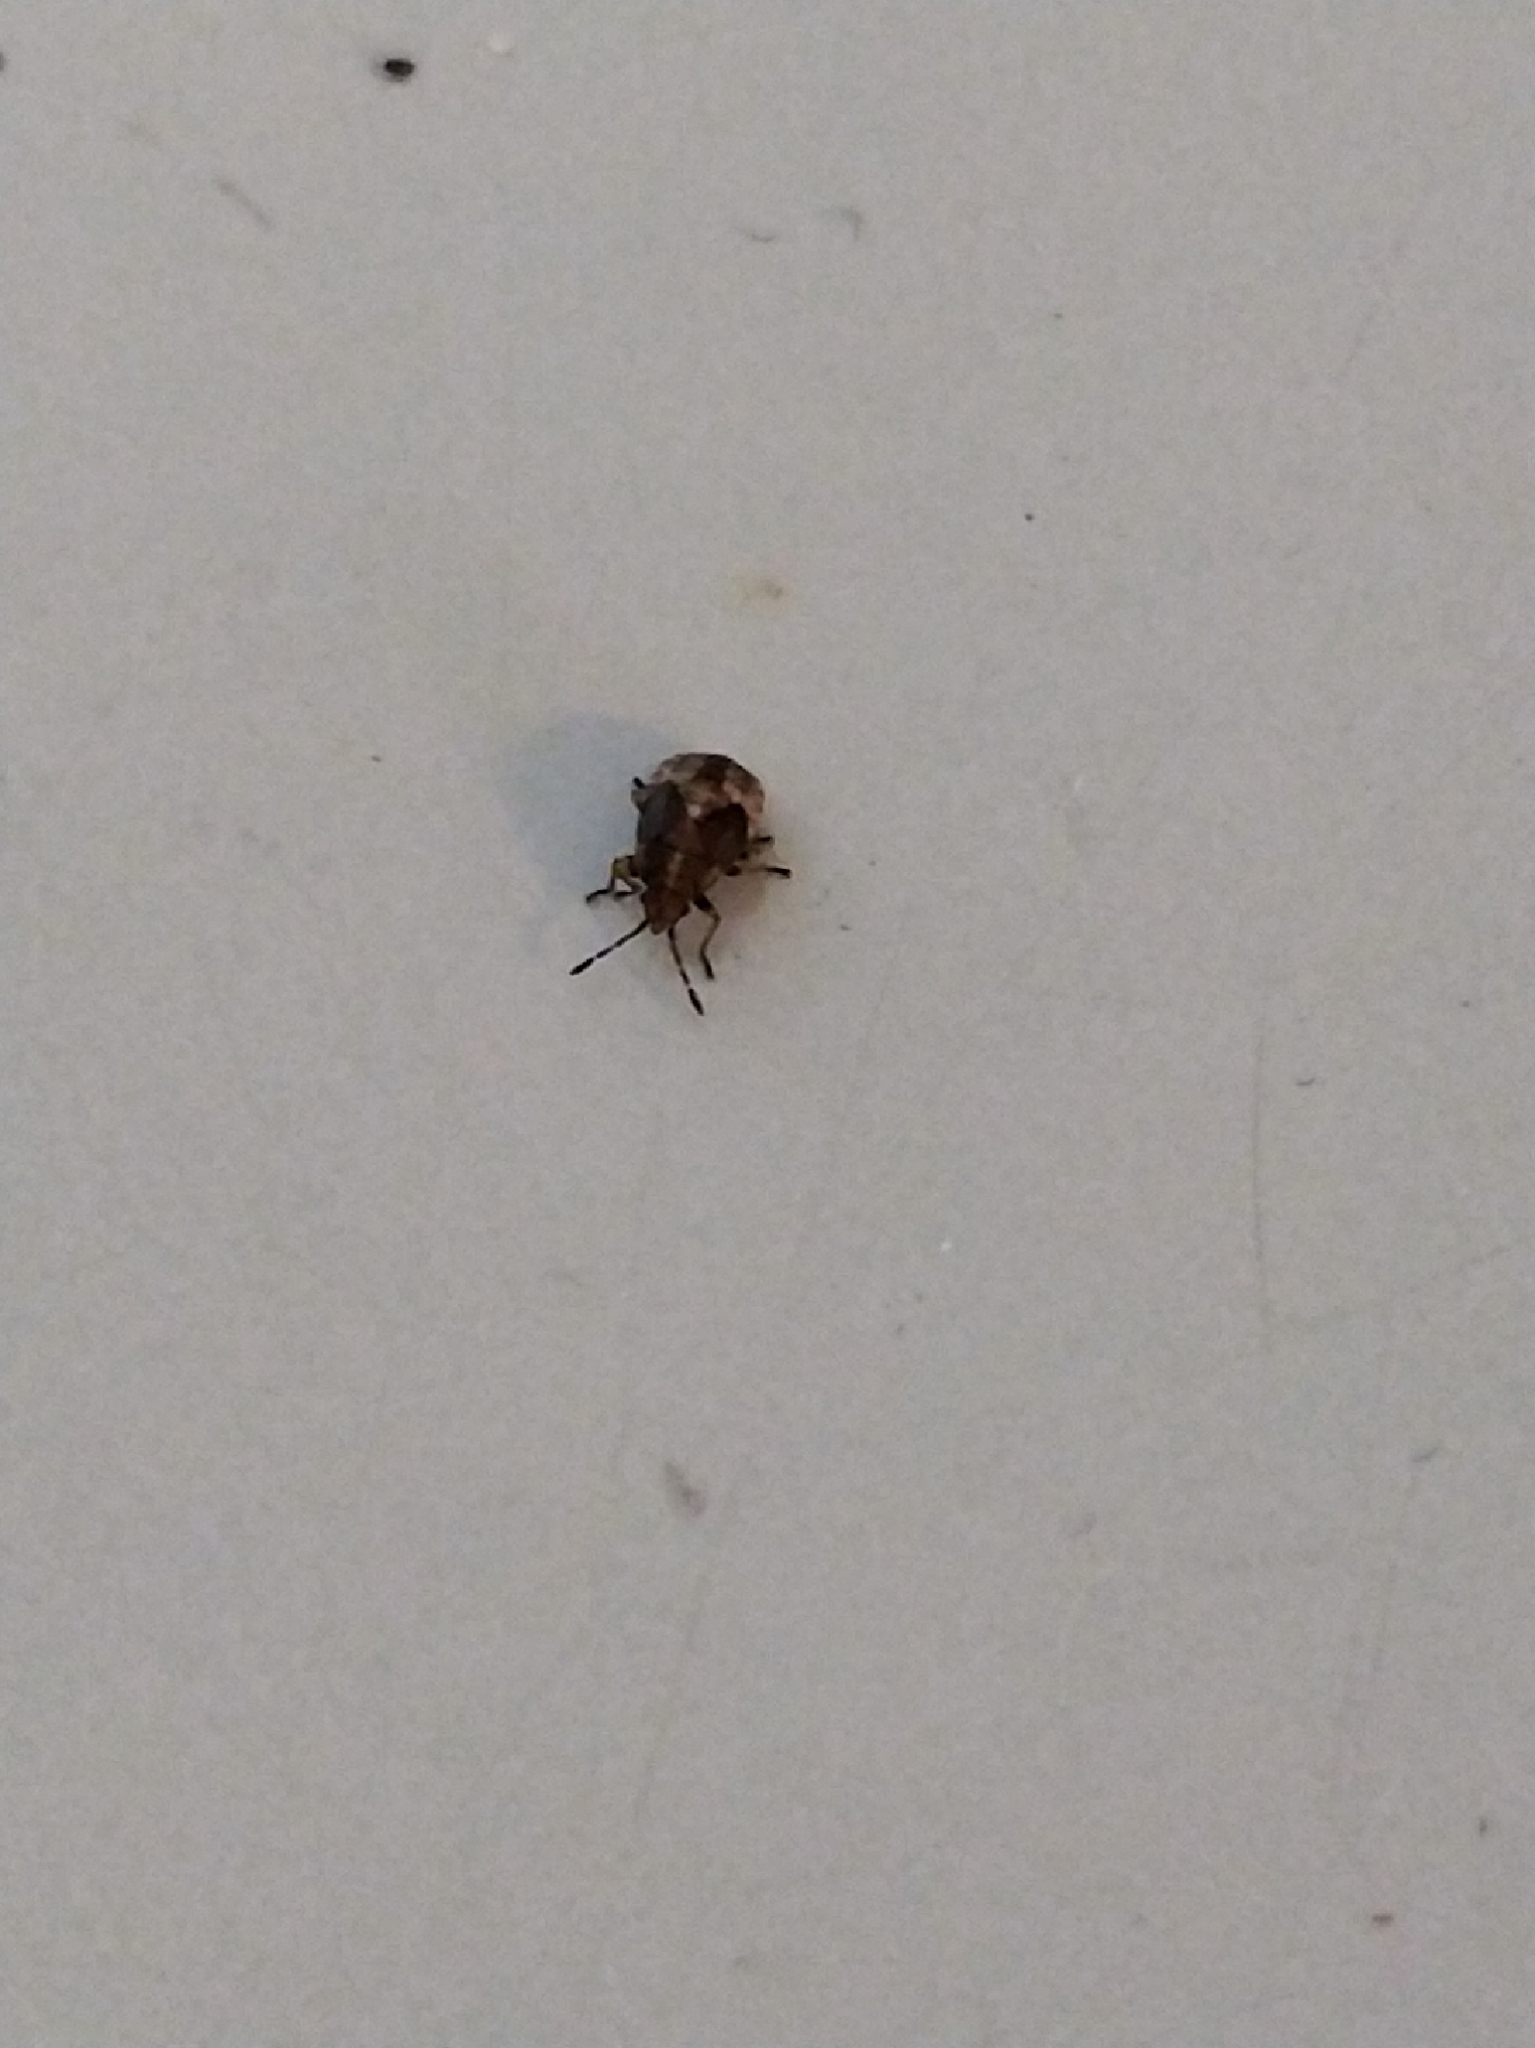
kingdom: Animalia
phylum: Arthropoda
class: Insecta
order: Hemiptera
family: Lygaeidae
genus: Kleidocerys
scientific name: Kleidocerys resedae
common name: Birch catkin bug
